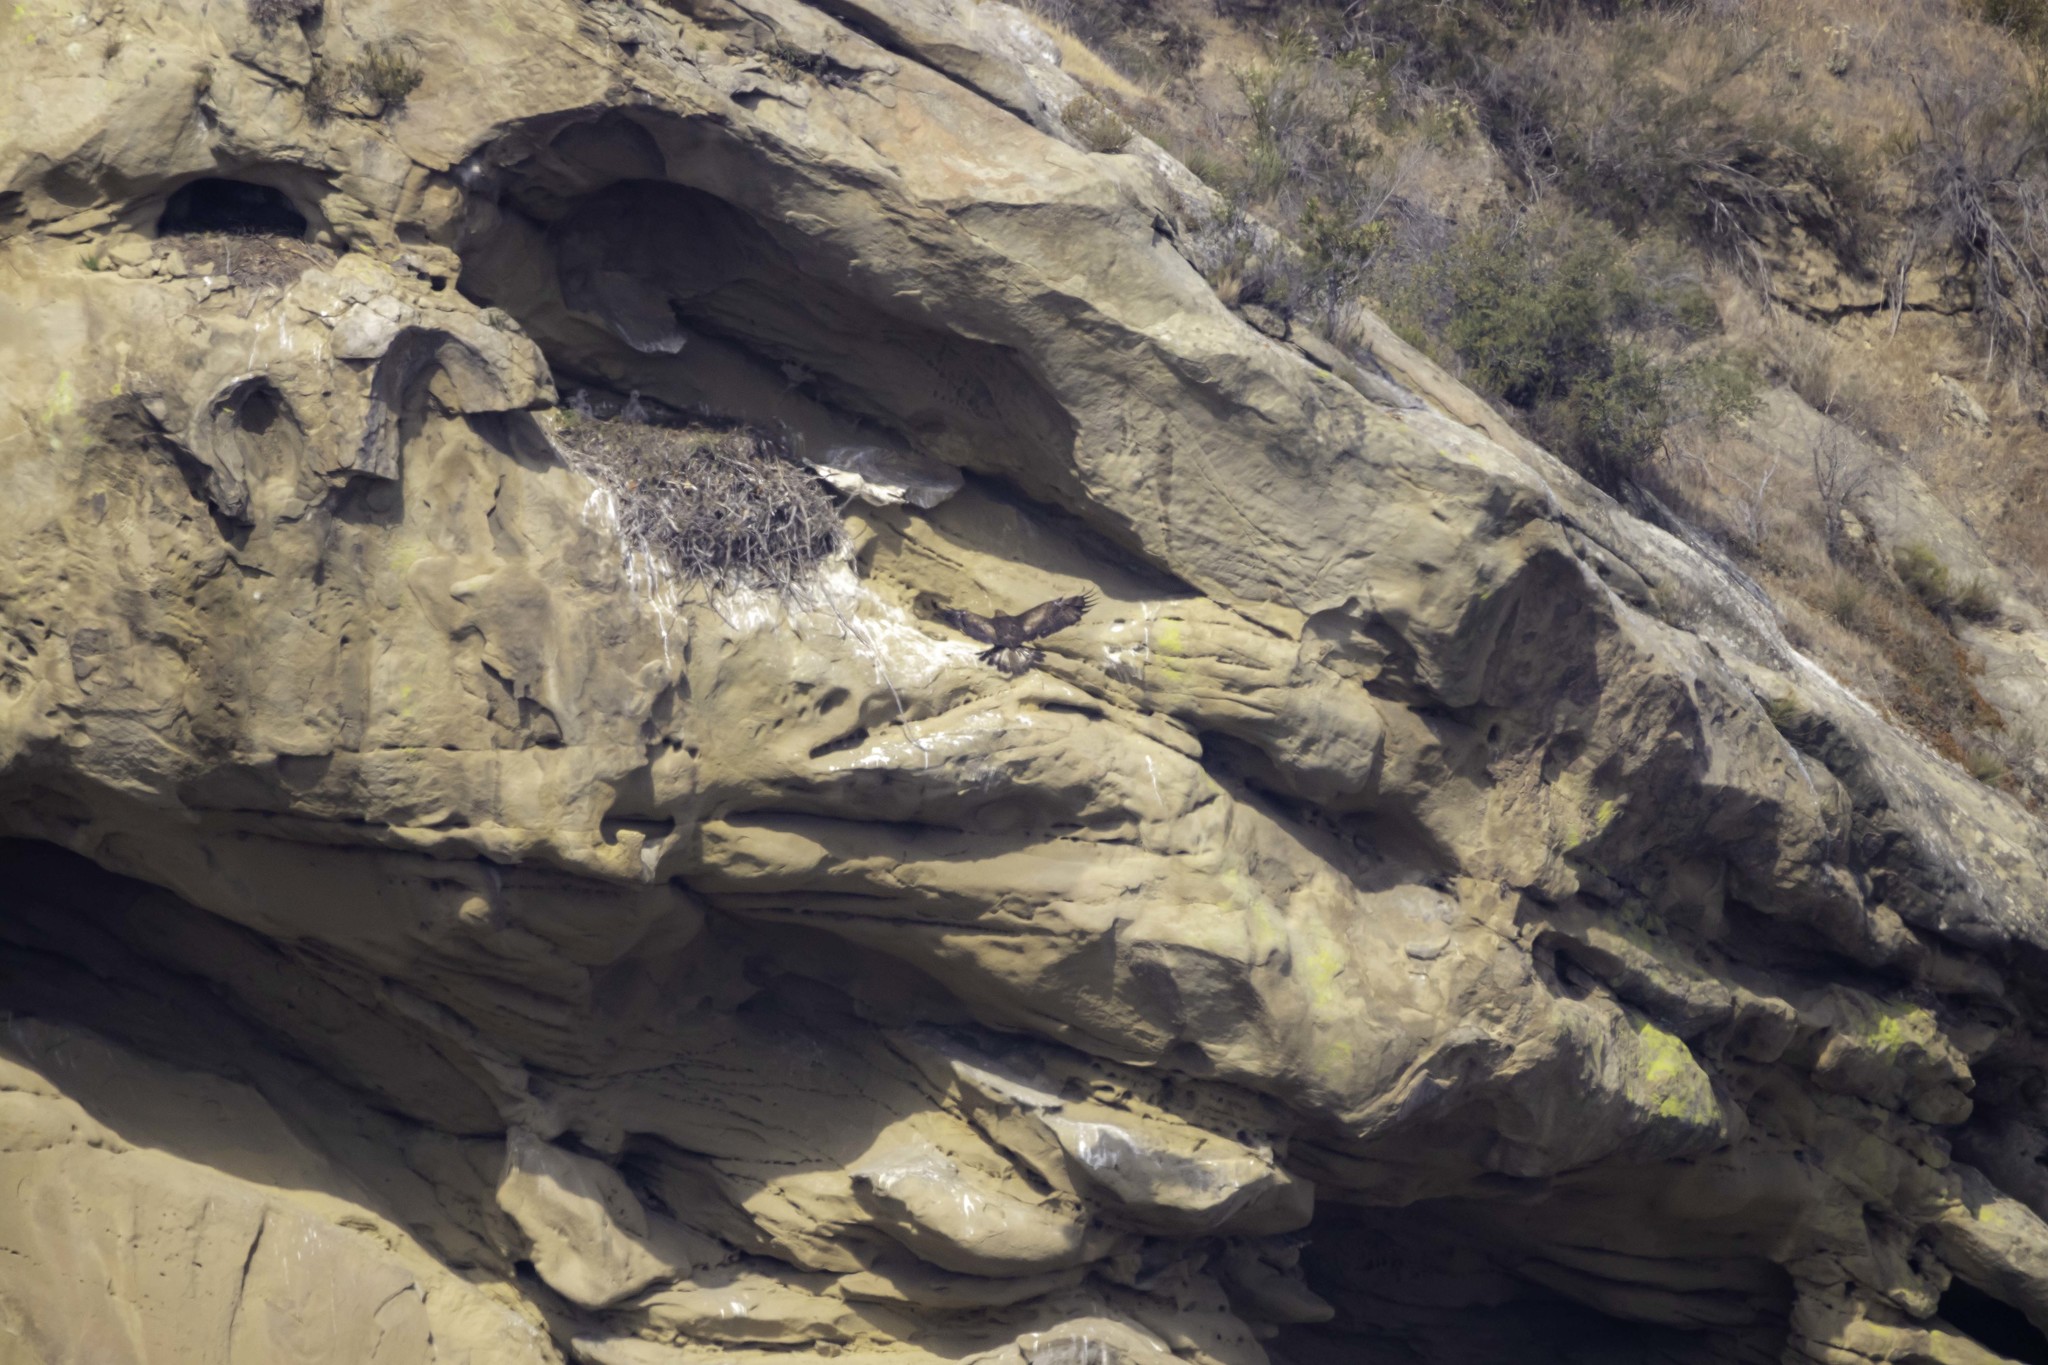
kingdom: Animalia
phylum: Chordata
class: Aves
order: Accipitriformes
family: Accipitridae
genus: Aquila
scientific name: Aquila chrysaetos
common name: Golden eagle
